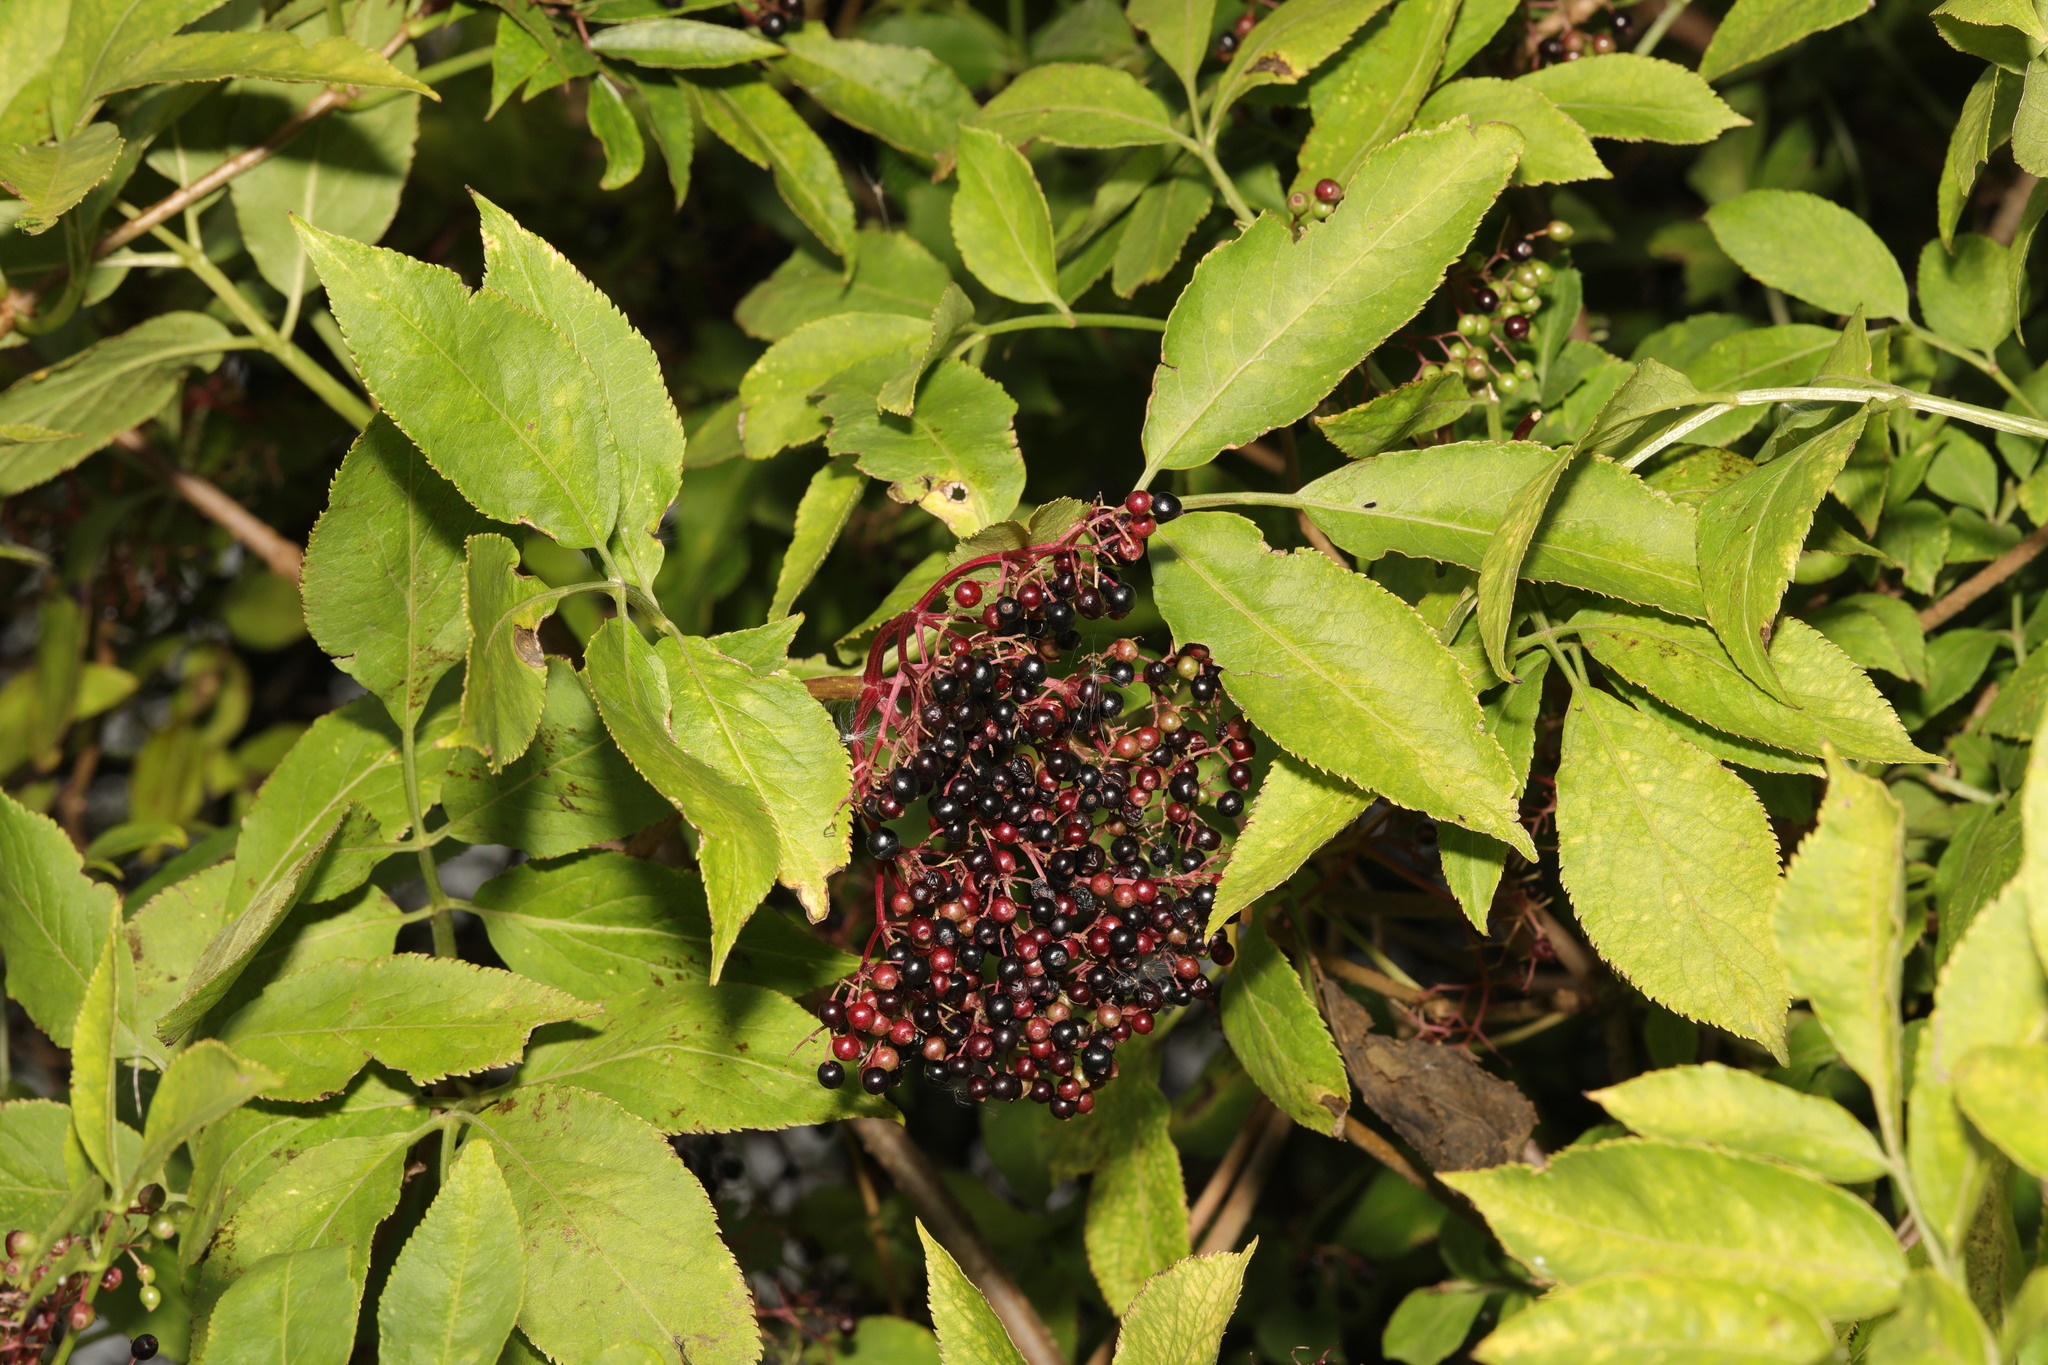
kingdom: Plantae
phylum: Tracheophyta
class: Magnoliopsida
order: Dipsacales
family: Viburnaceae
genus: Sambucus
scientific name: Sambucus nigra
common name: Elder
